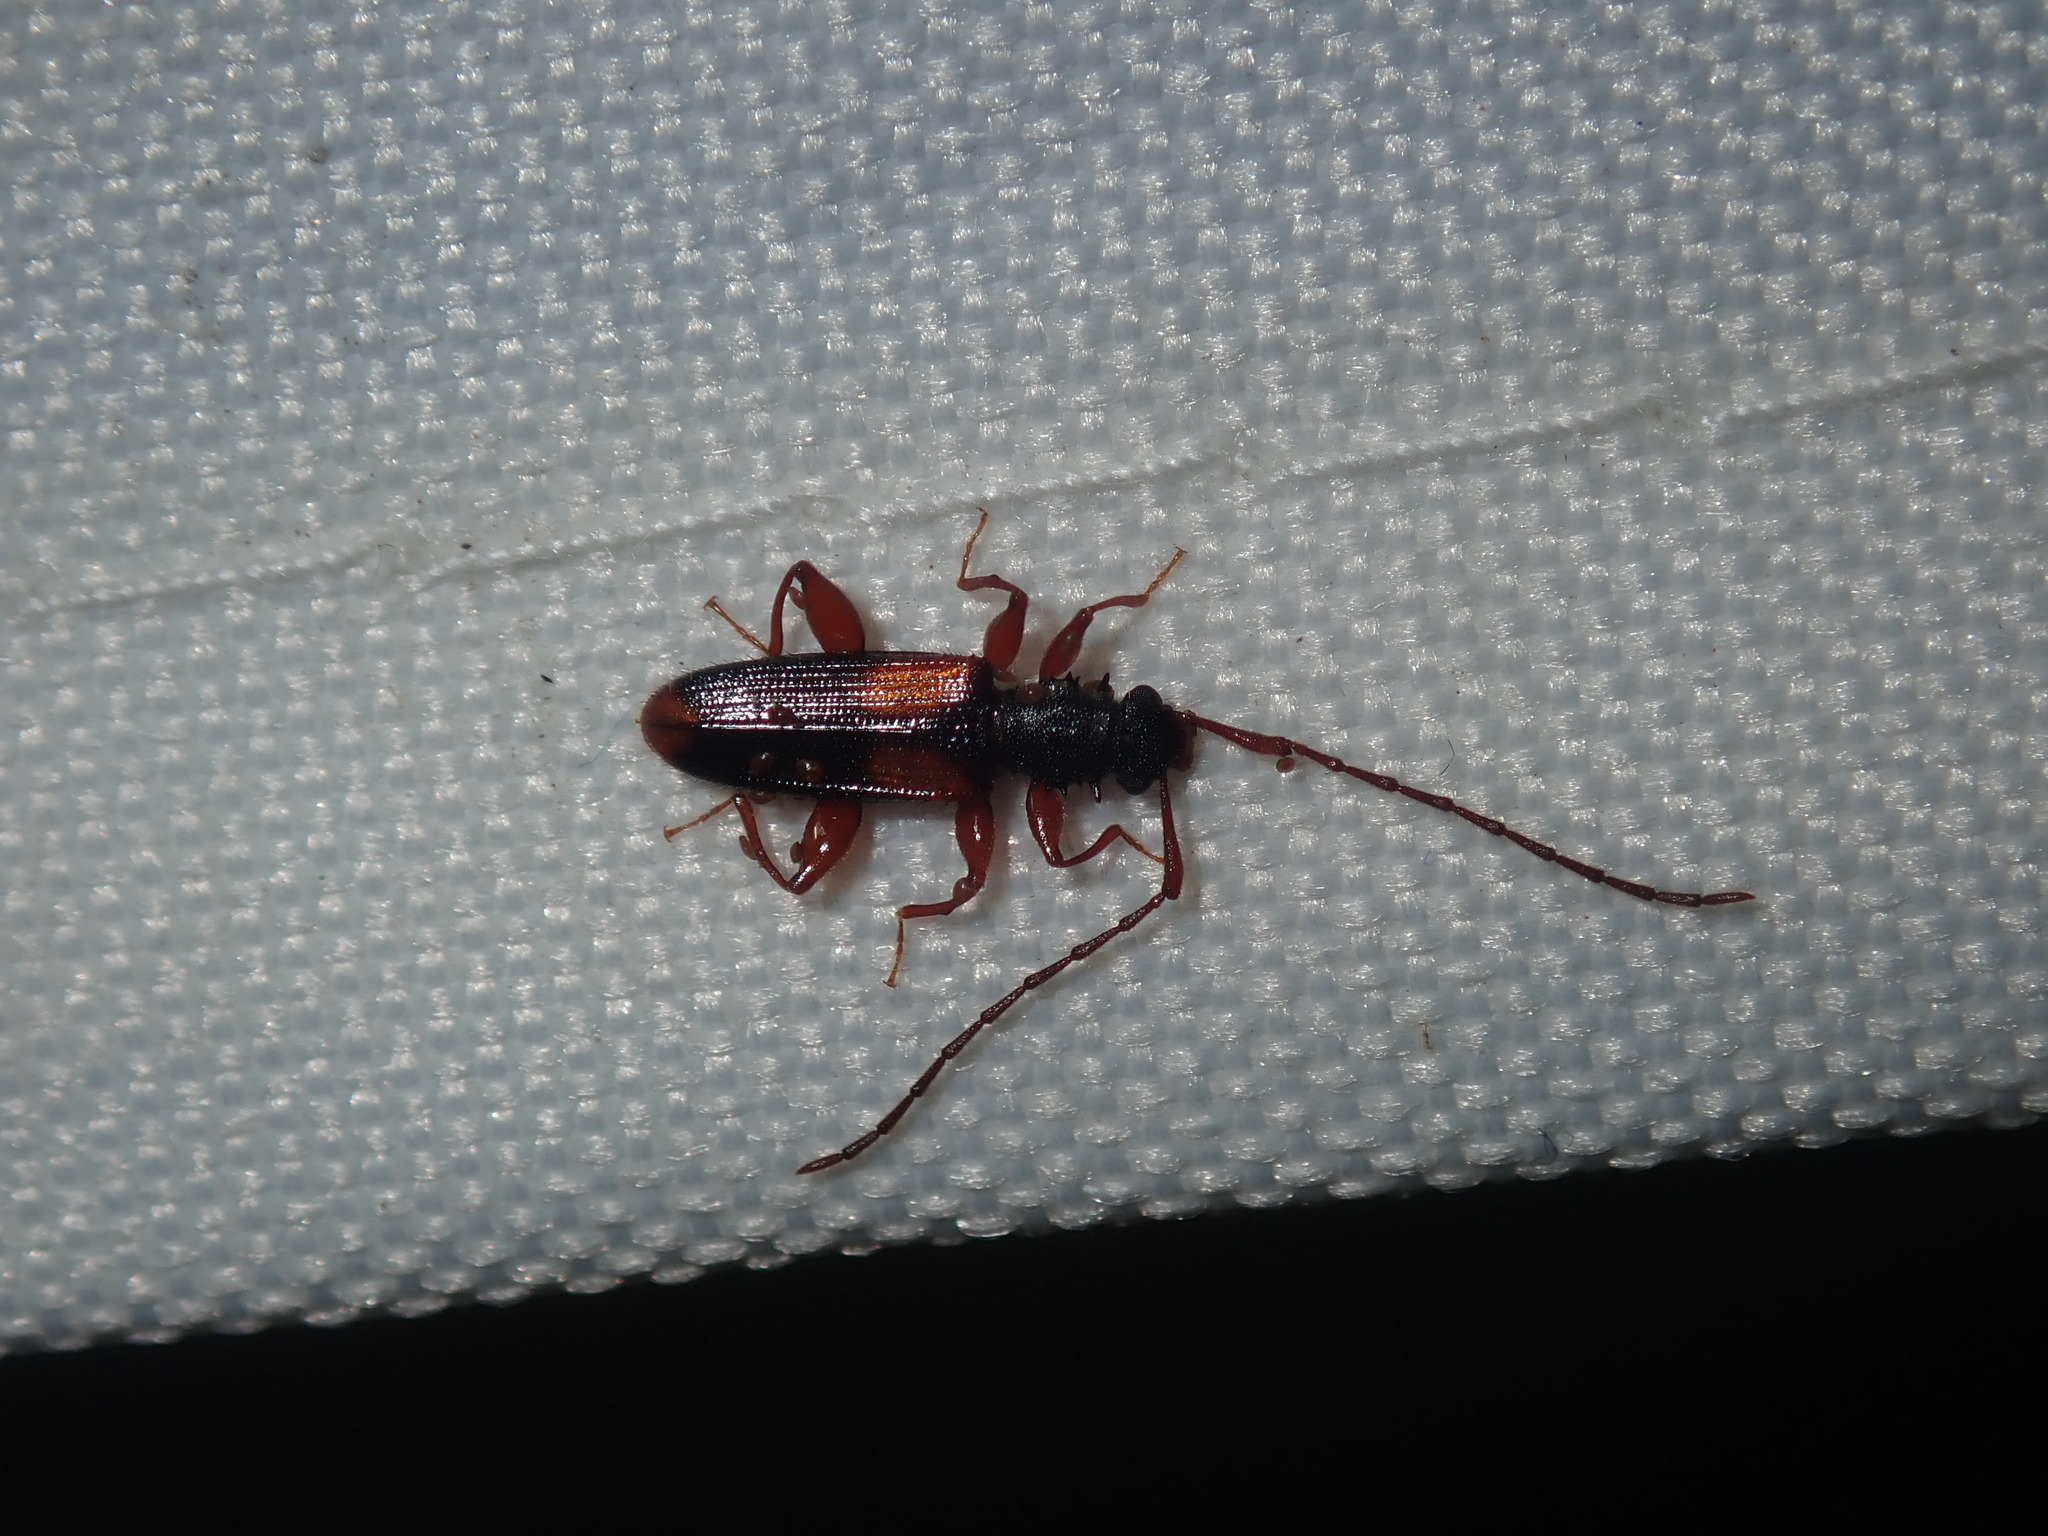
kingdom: Animalia
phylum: Arthropoda
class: Insecta
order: Coleoptera
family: Silvanidae
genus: Macrohyliota
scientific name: Macrohyliota militaris
